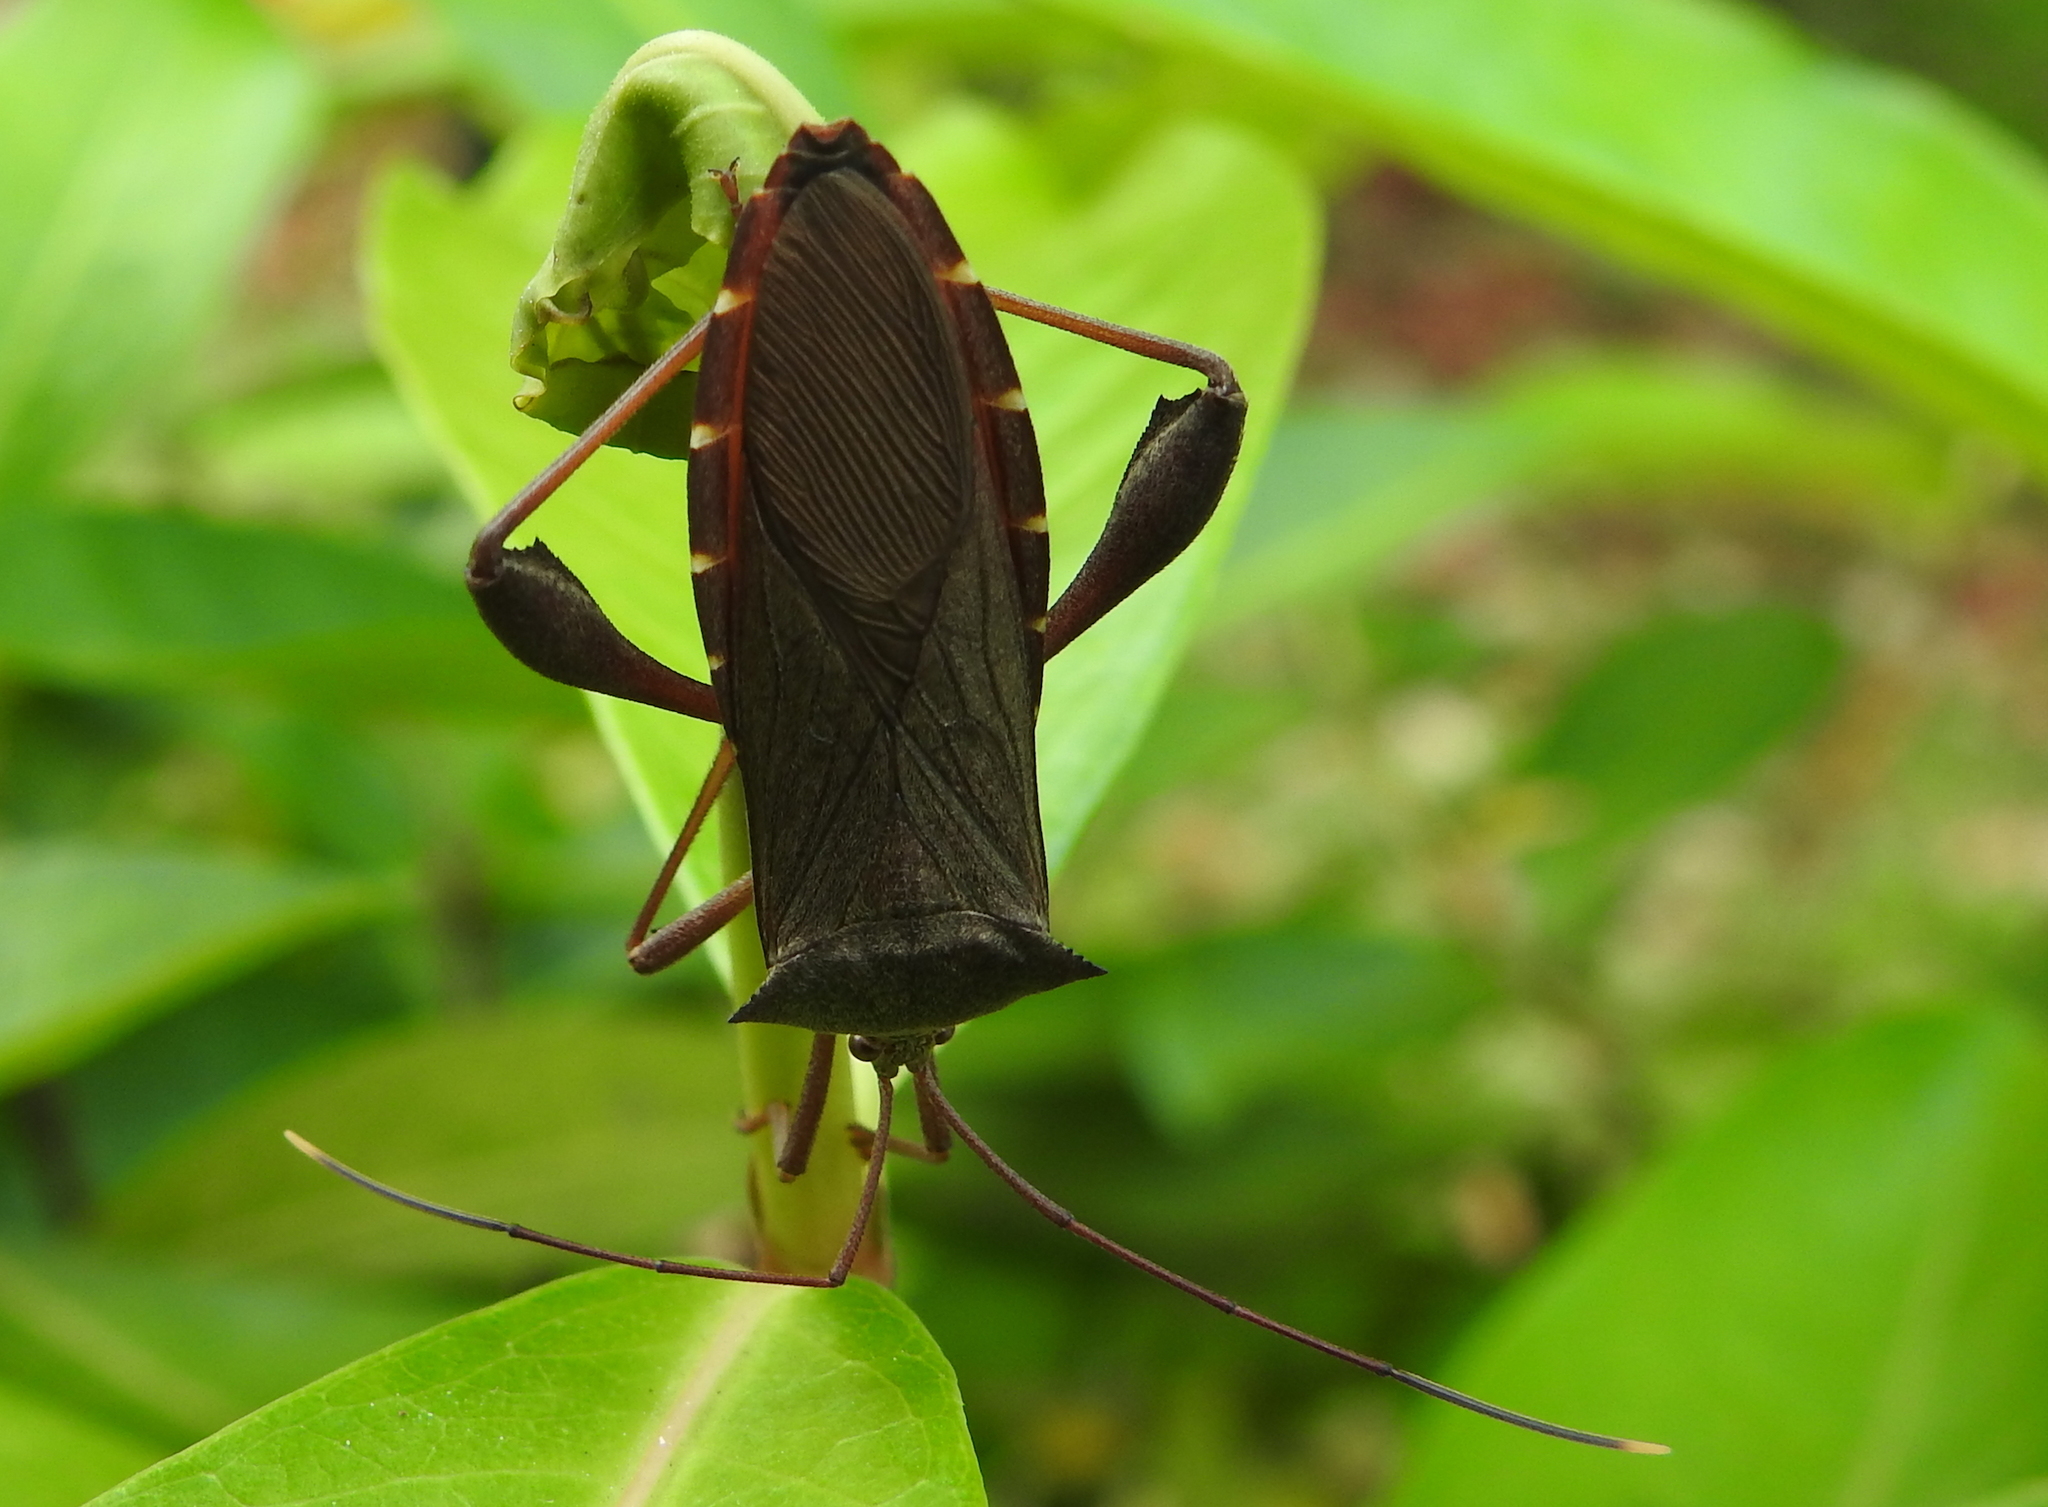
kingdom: Animalia
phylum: Arthropoda
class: Insecta
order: Hemiptera
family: Coreidae
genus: Mictis
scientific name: Mictis longicornis
